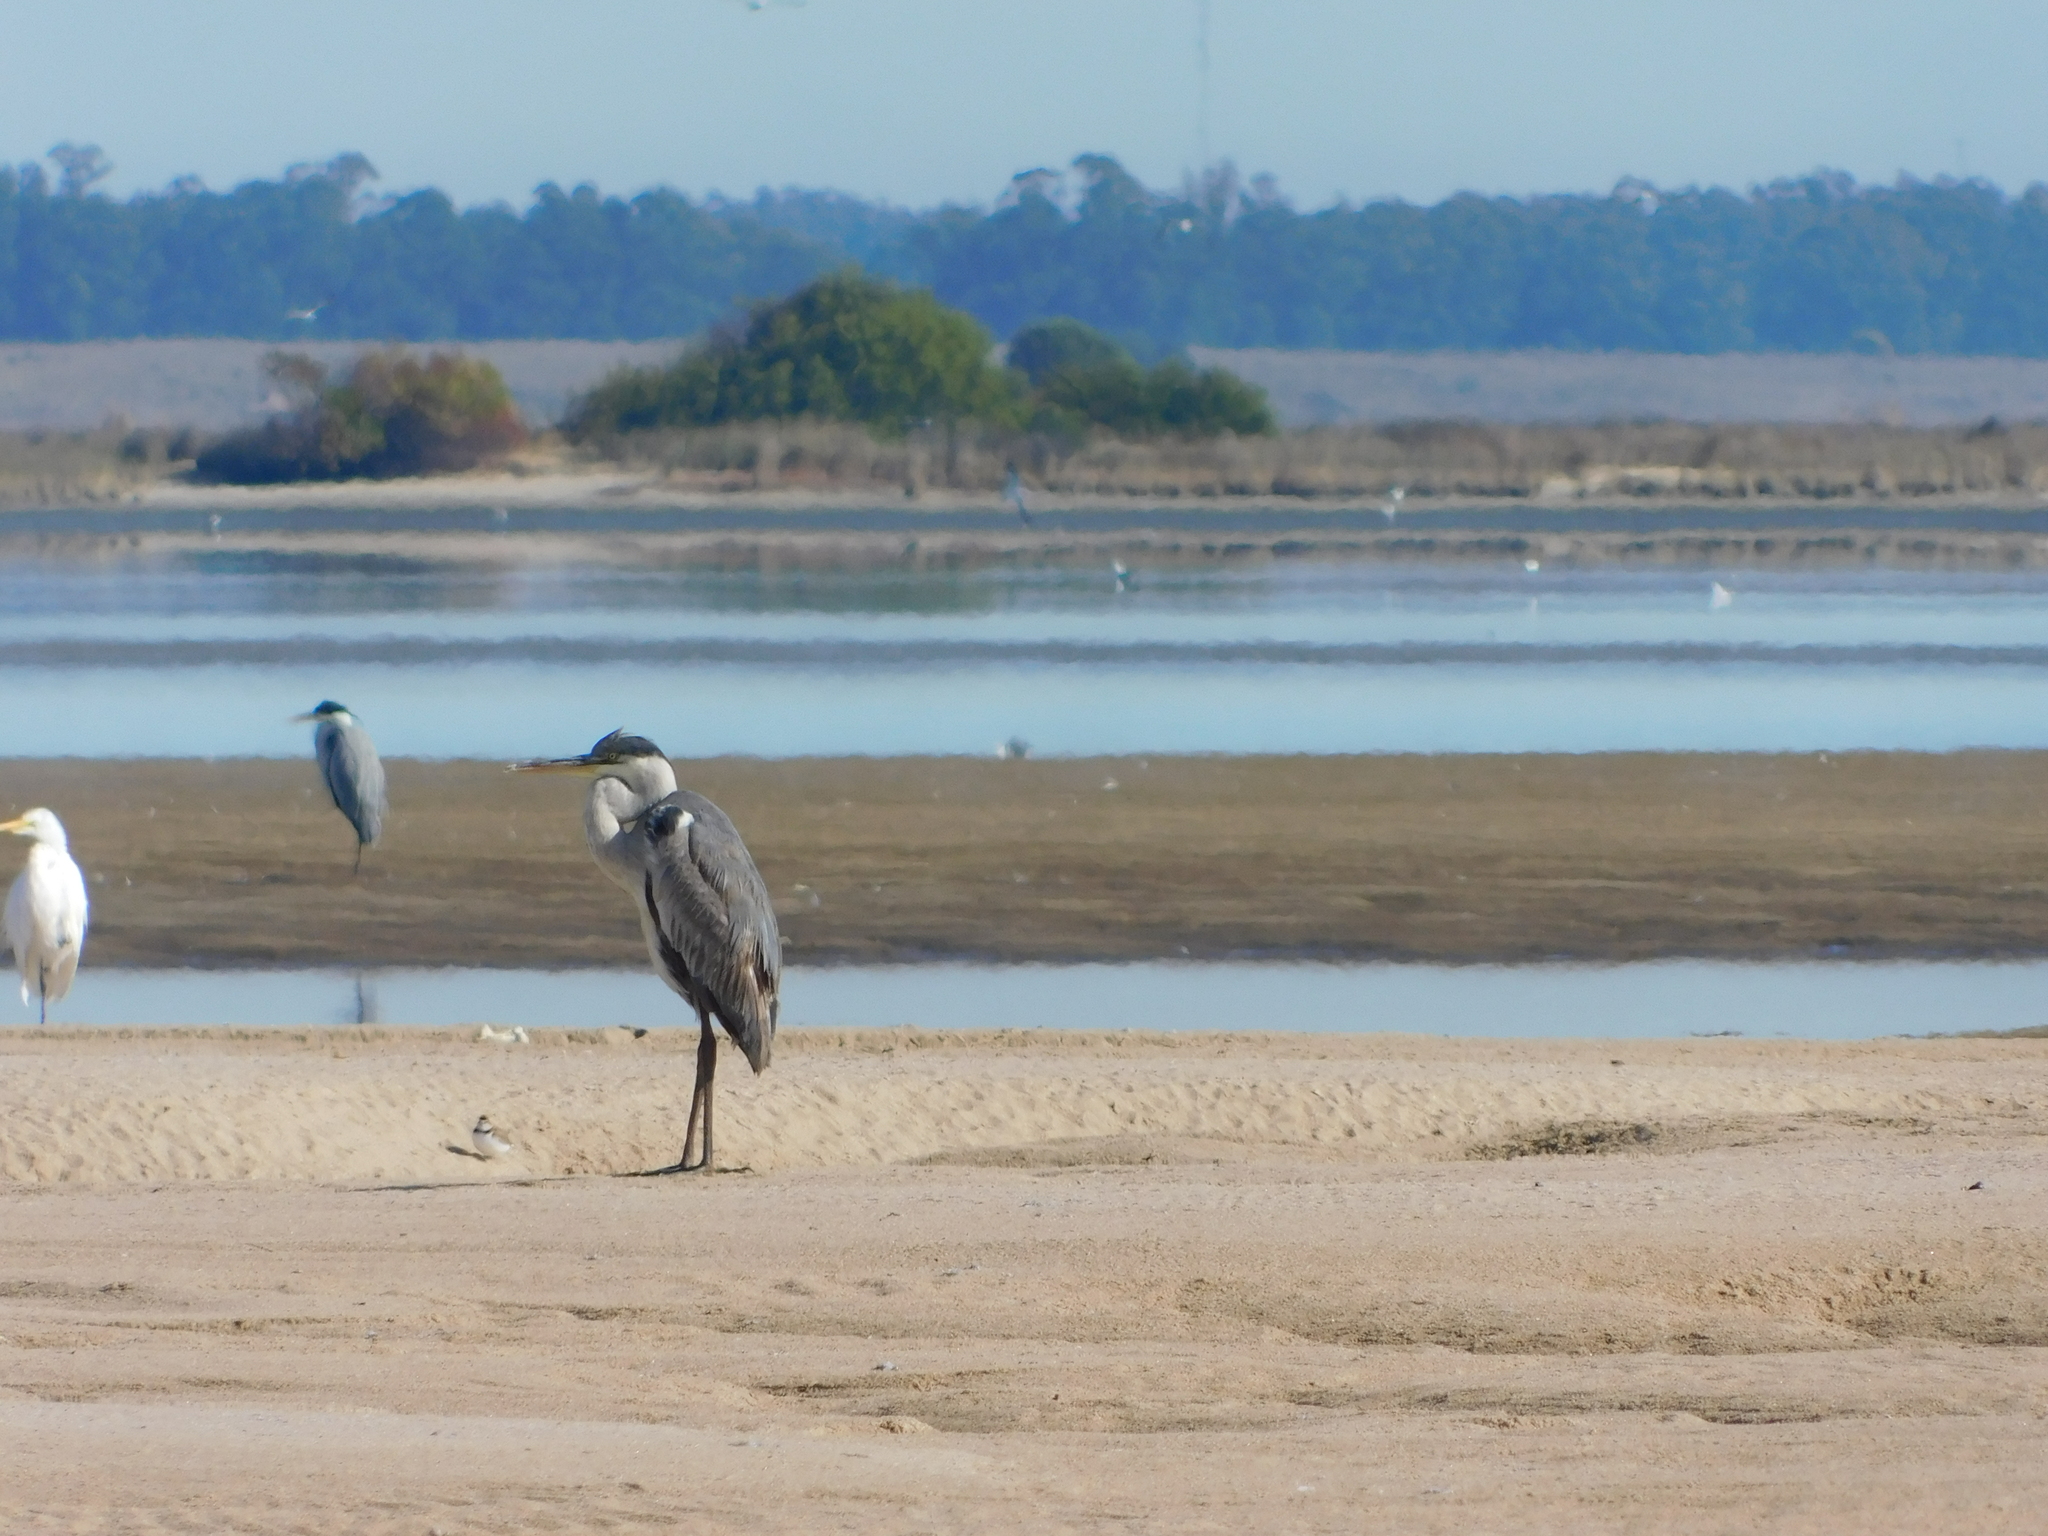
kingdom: Animalia
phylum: Chordata
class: Aves
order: Pelecaniformes
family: Ardeidae
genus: Ardea
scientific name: Ardea cocoi
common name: Cocoi heron
